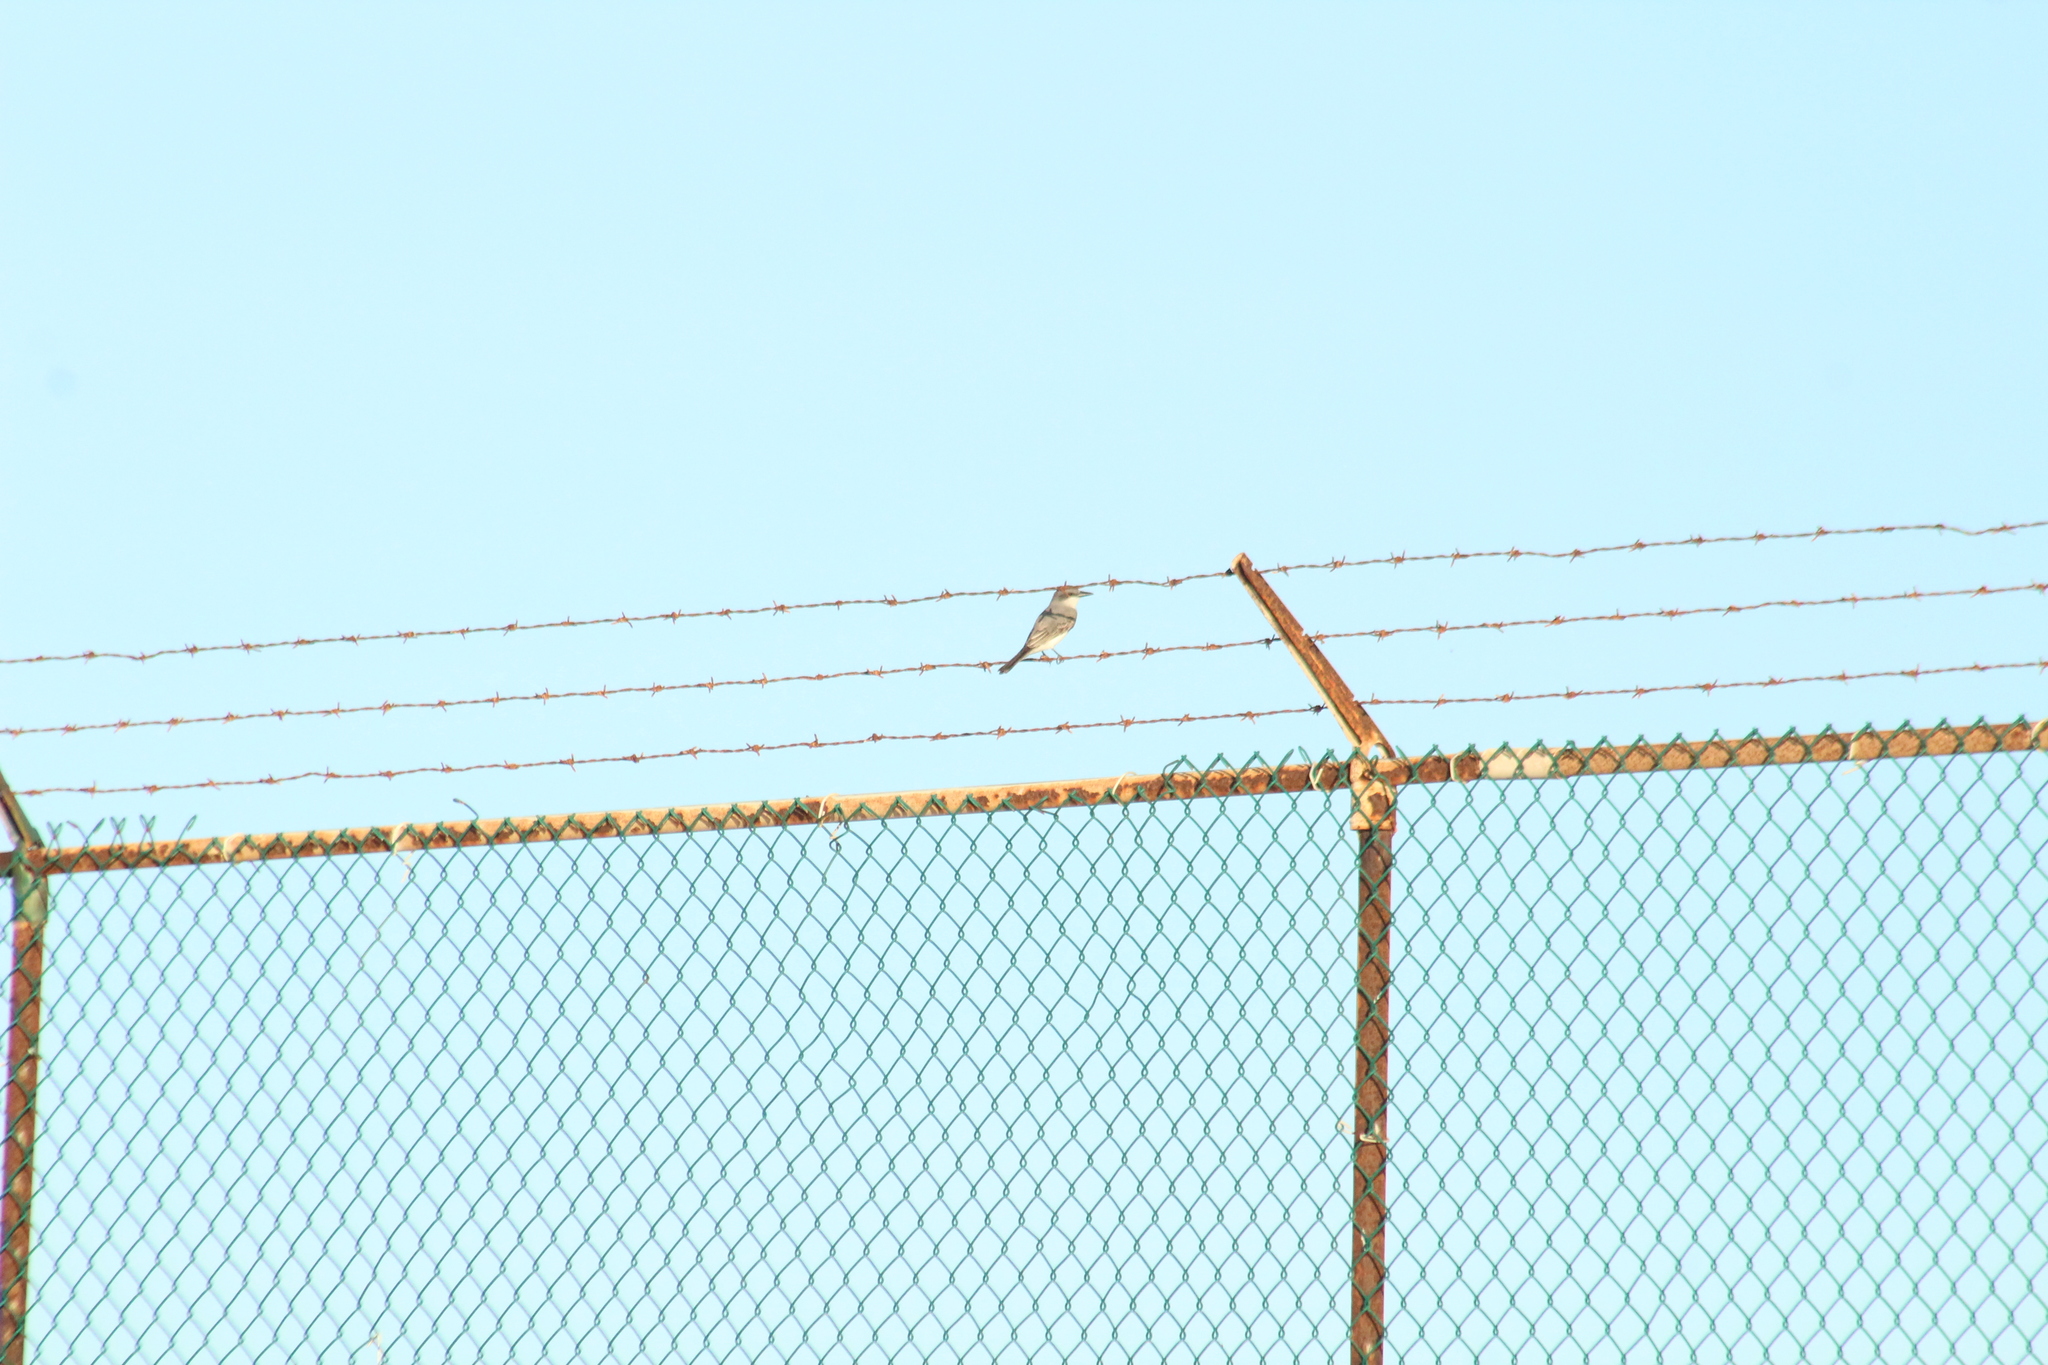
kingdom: Animalia
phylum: Chordata
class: Aves
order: Passeriformes
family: Tyrannidae
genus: Tyrannus
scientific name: Tyrannus dominicensis
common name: Gray kingbird
